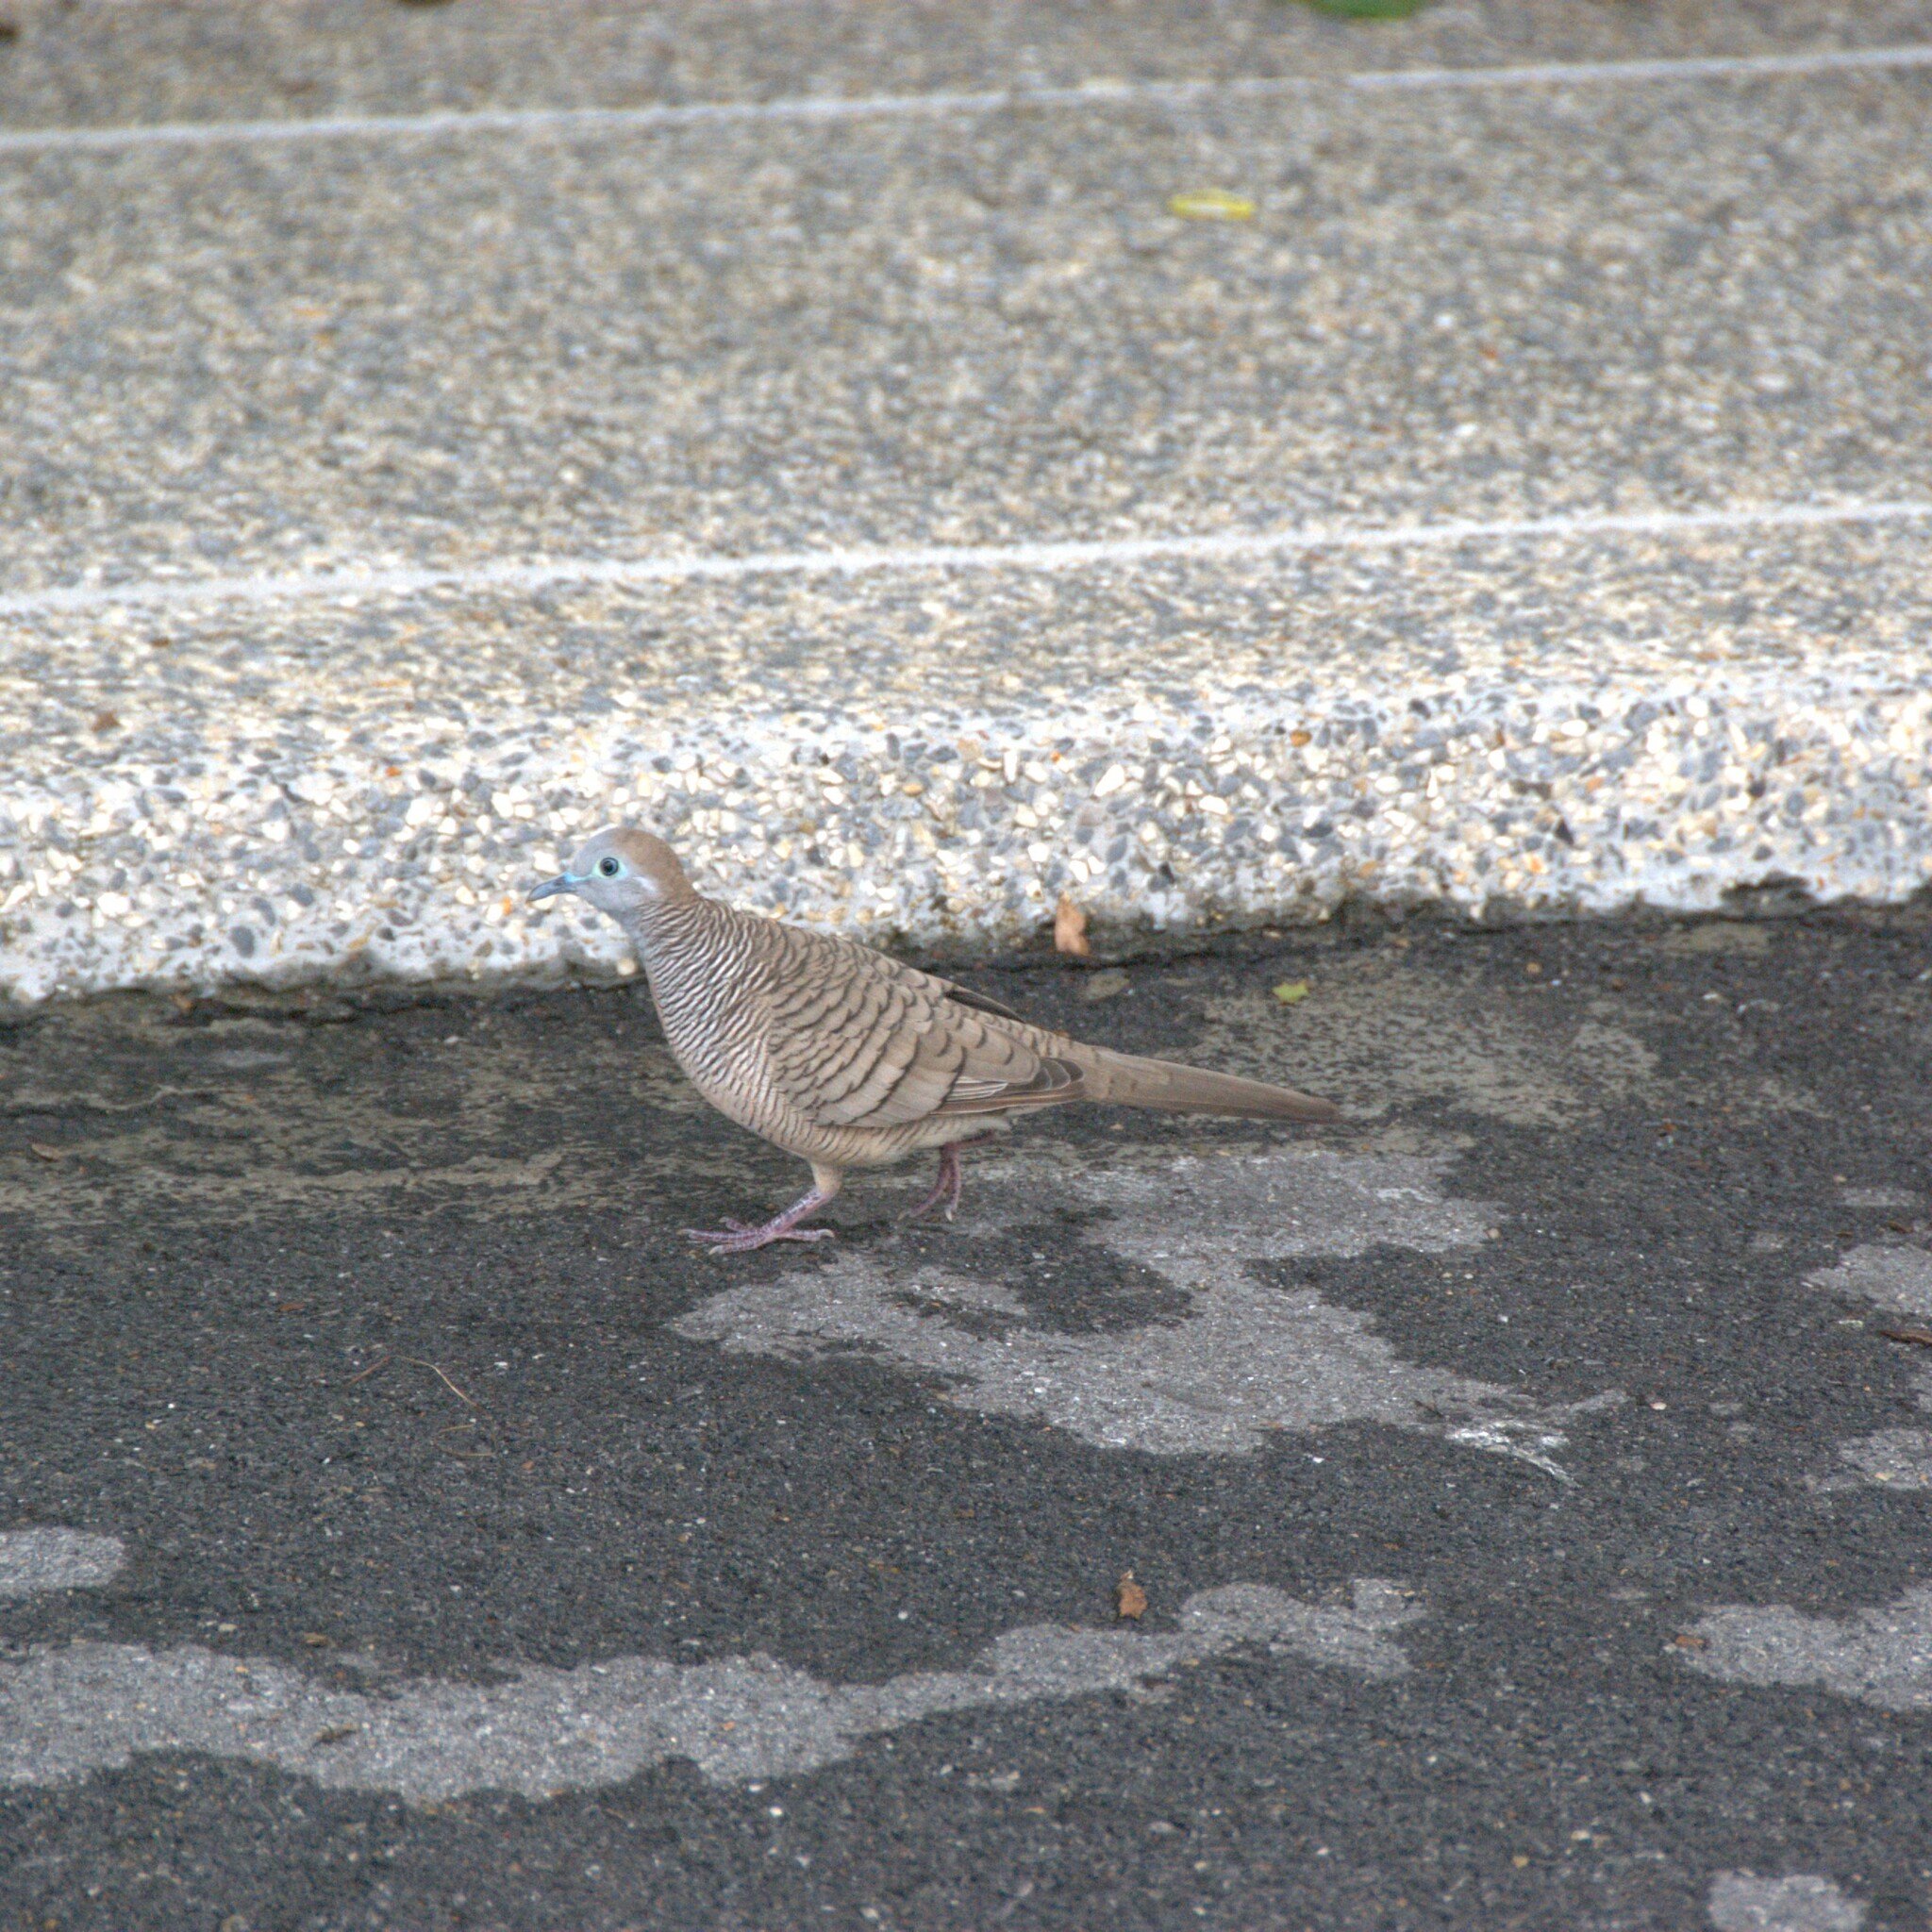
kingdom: Animalia
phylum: Chordata
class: Aves
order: Columbiformes
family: Columbidae
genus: Geopelia
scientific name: Geopelia striata
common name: Zebra dove
